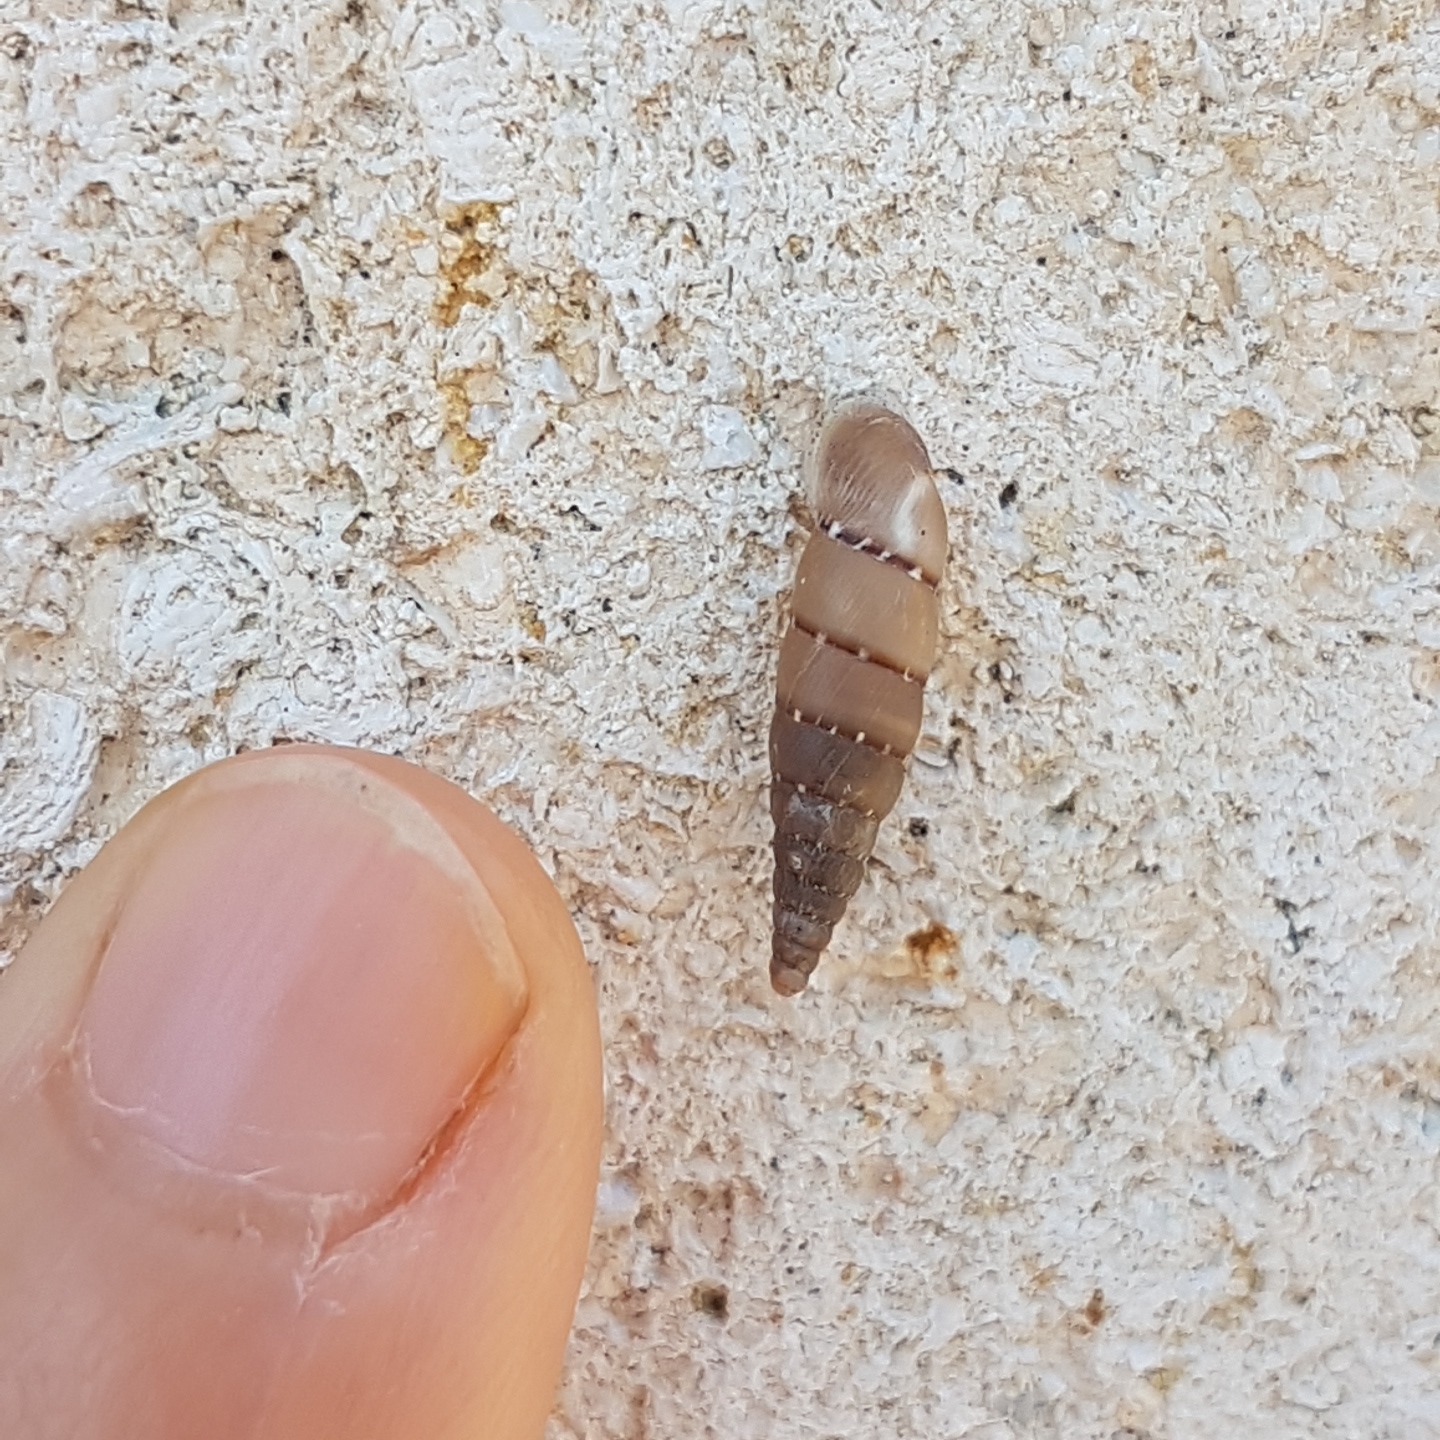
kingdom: Animalia
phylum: Mollusca
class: Gastropoda
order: Stylommatophora
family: Clausiliidae
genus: Papillifera
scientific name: Papillifera papillaris
